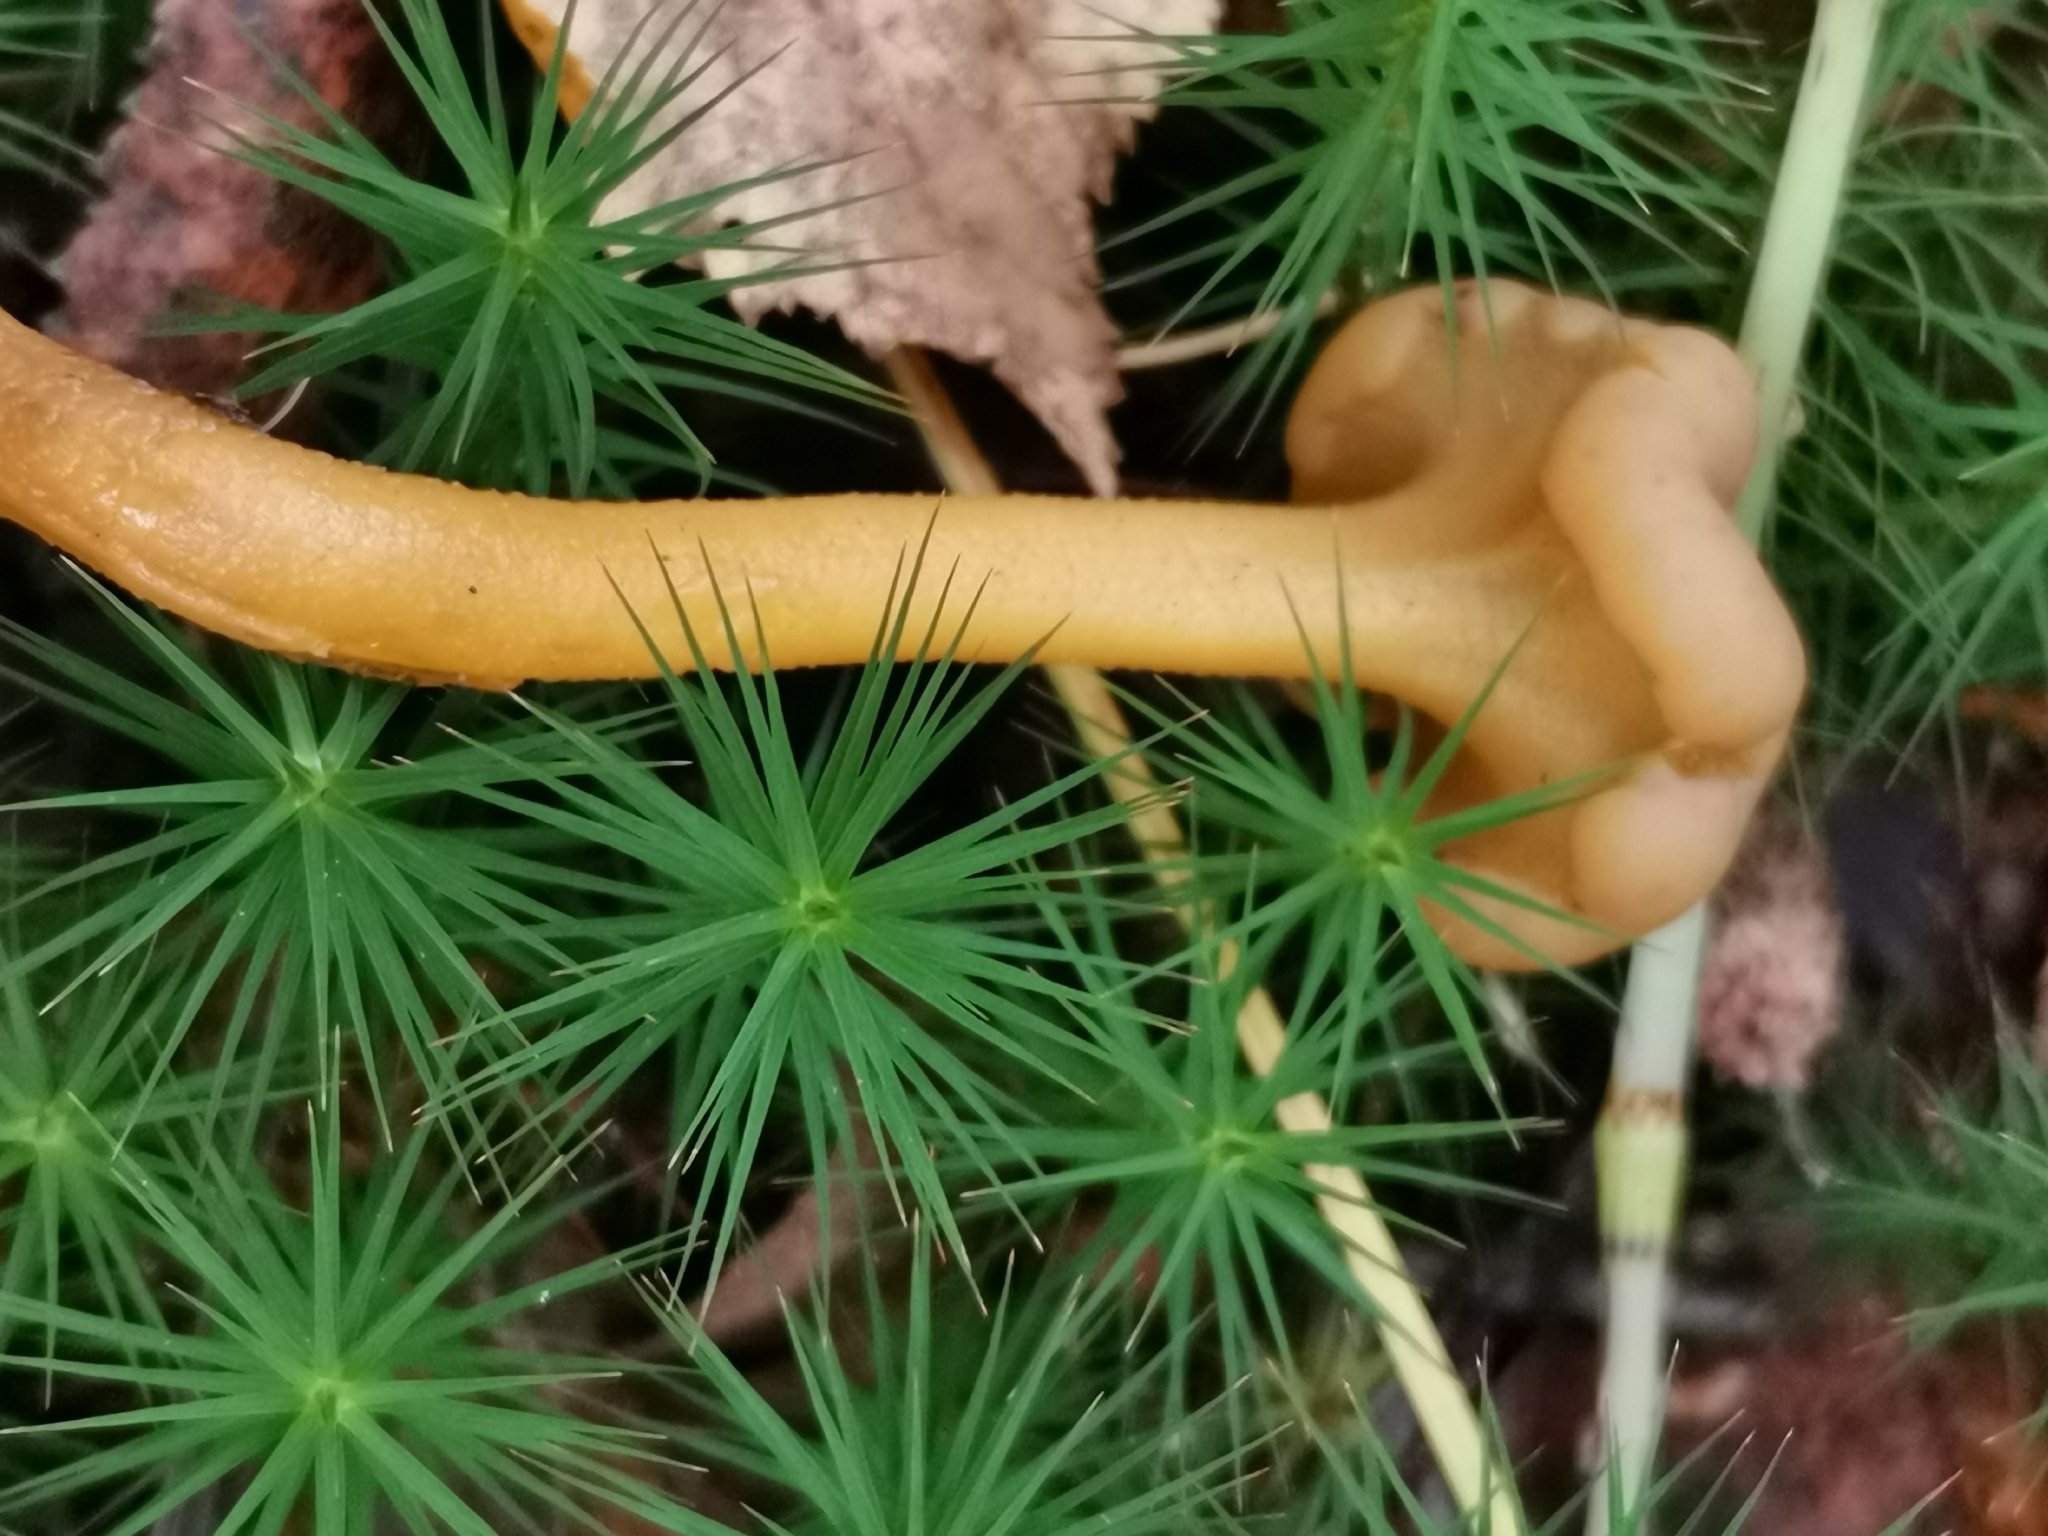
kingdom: Fungi
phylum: Ascomycota
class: Leotiomycetes
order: Leotiales
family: Leotiaceae
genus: Leotia
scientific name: Leotia lubrica
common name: Jellybaby
